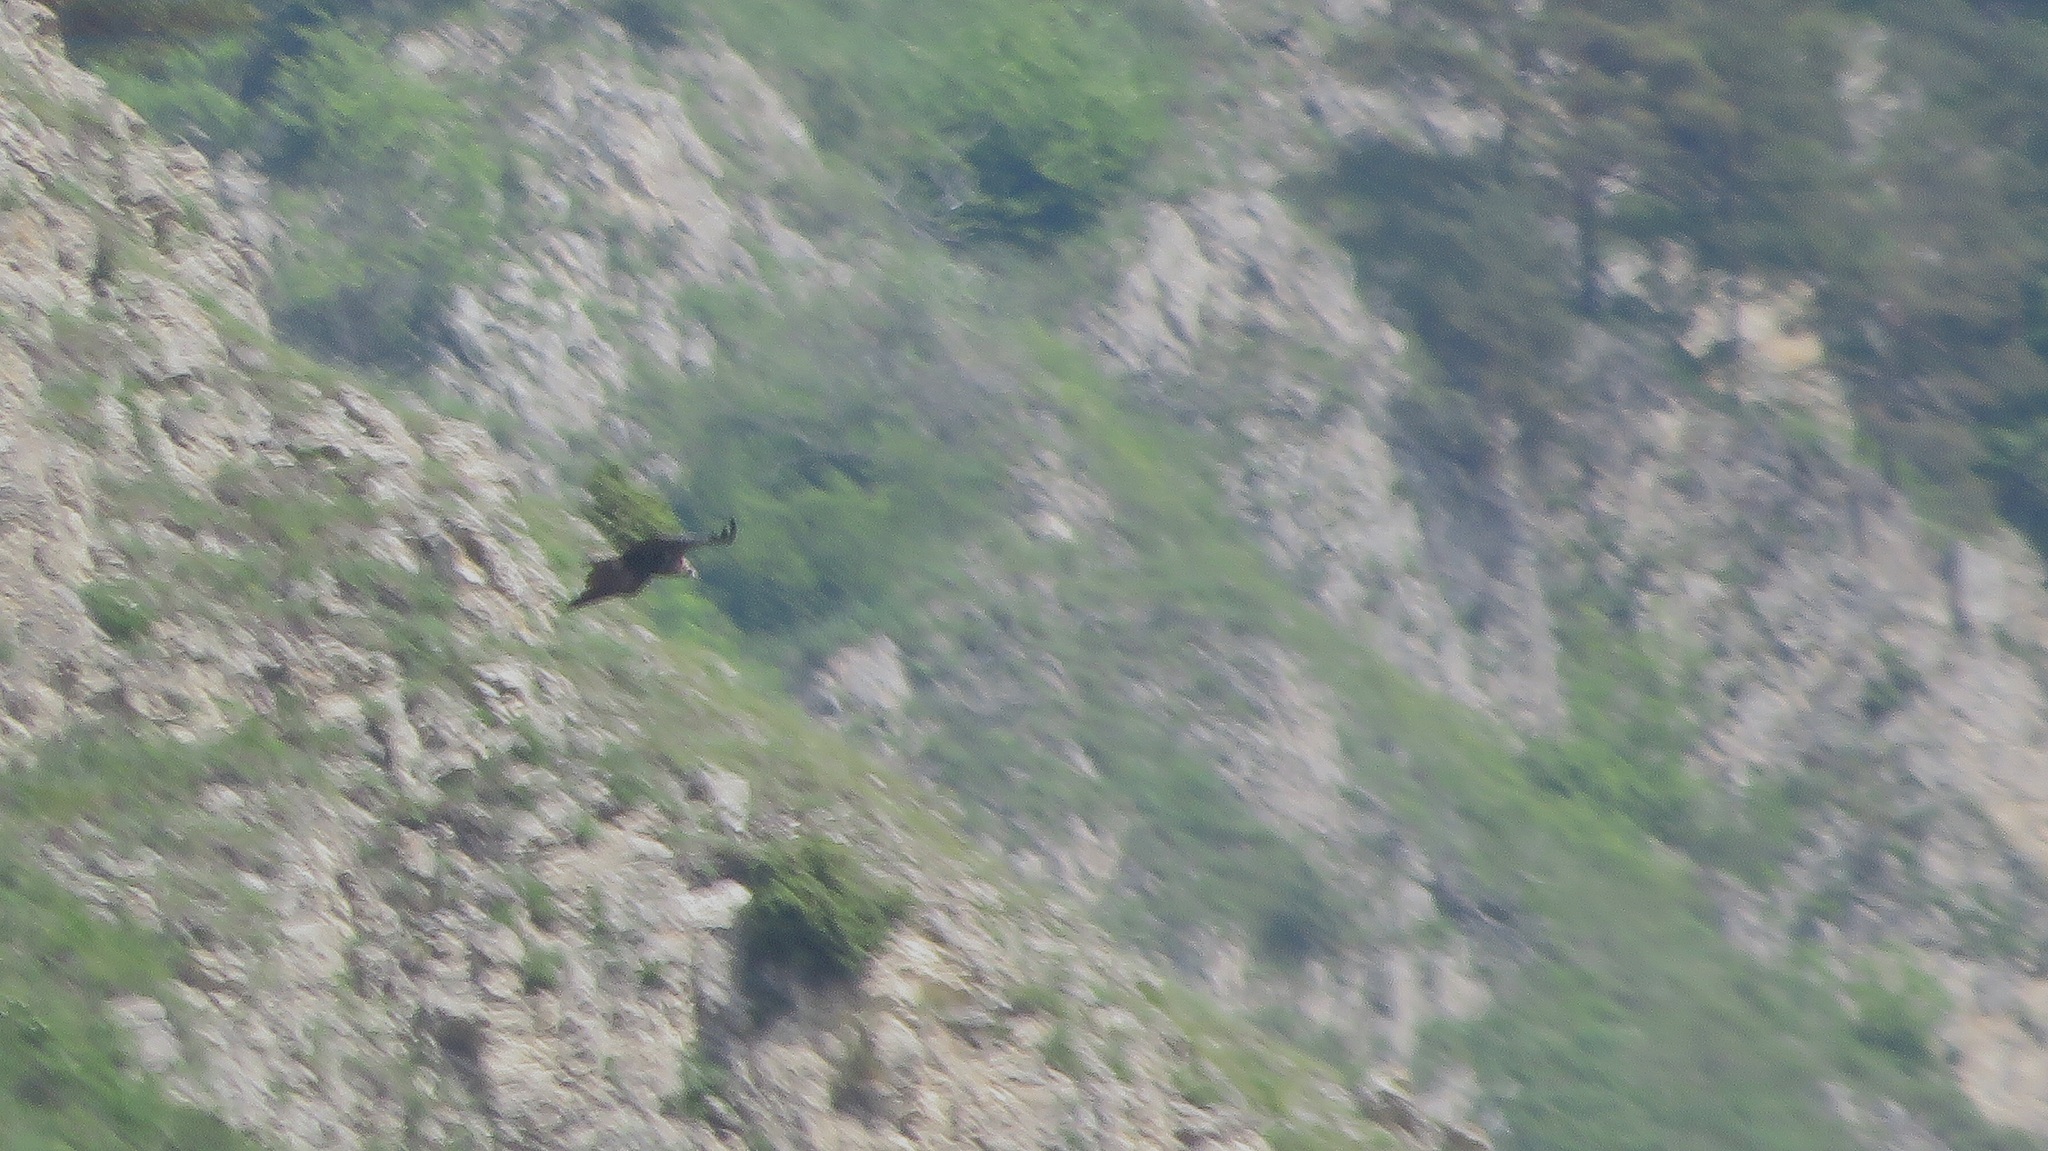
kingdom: Animalia
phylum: Chordata
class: Aves
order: Accipitriformes
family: Accipitridae
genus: Aegypius
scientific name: Aegypius monachus
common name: Cinereous vulture
